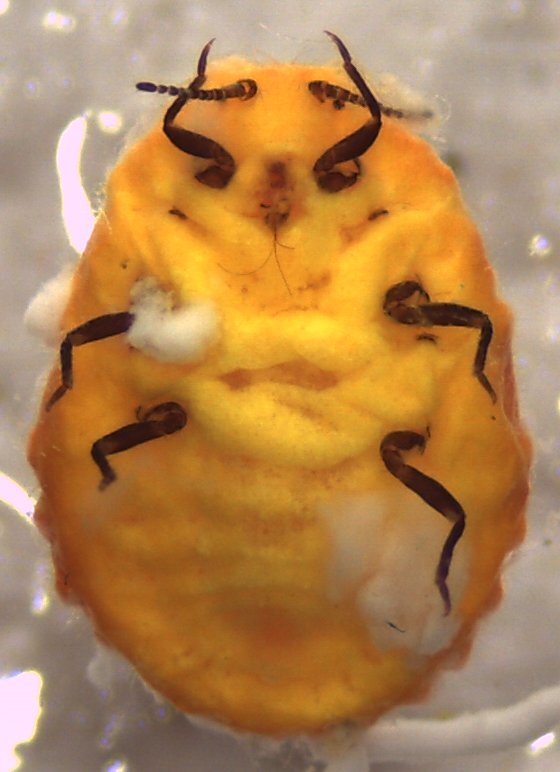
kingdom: Animalia
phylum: Arthropoda
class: Insecta
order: Hemiptera
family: Margarodidae
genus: Icerya
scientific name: Icerya aegyptiaca
